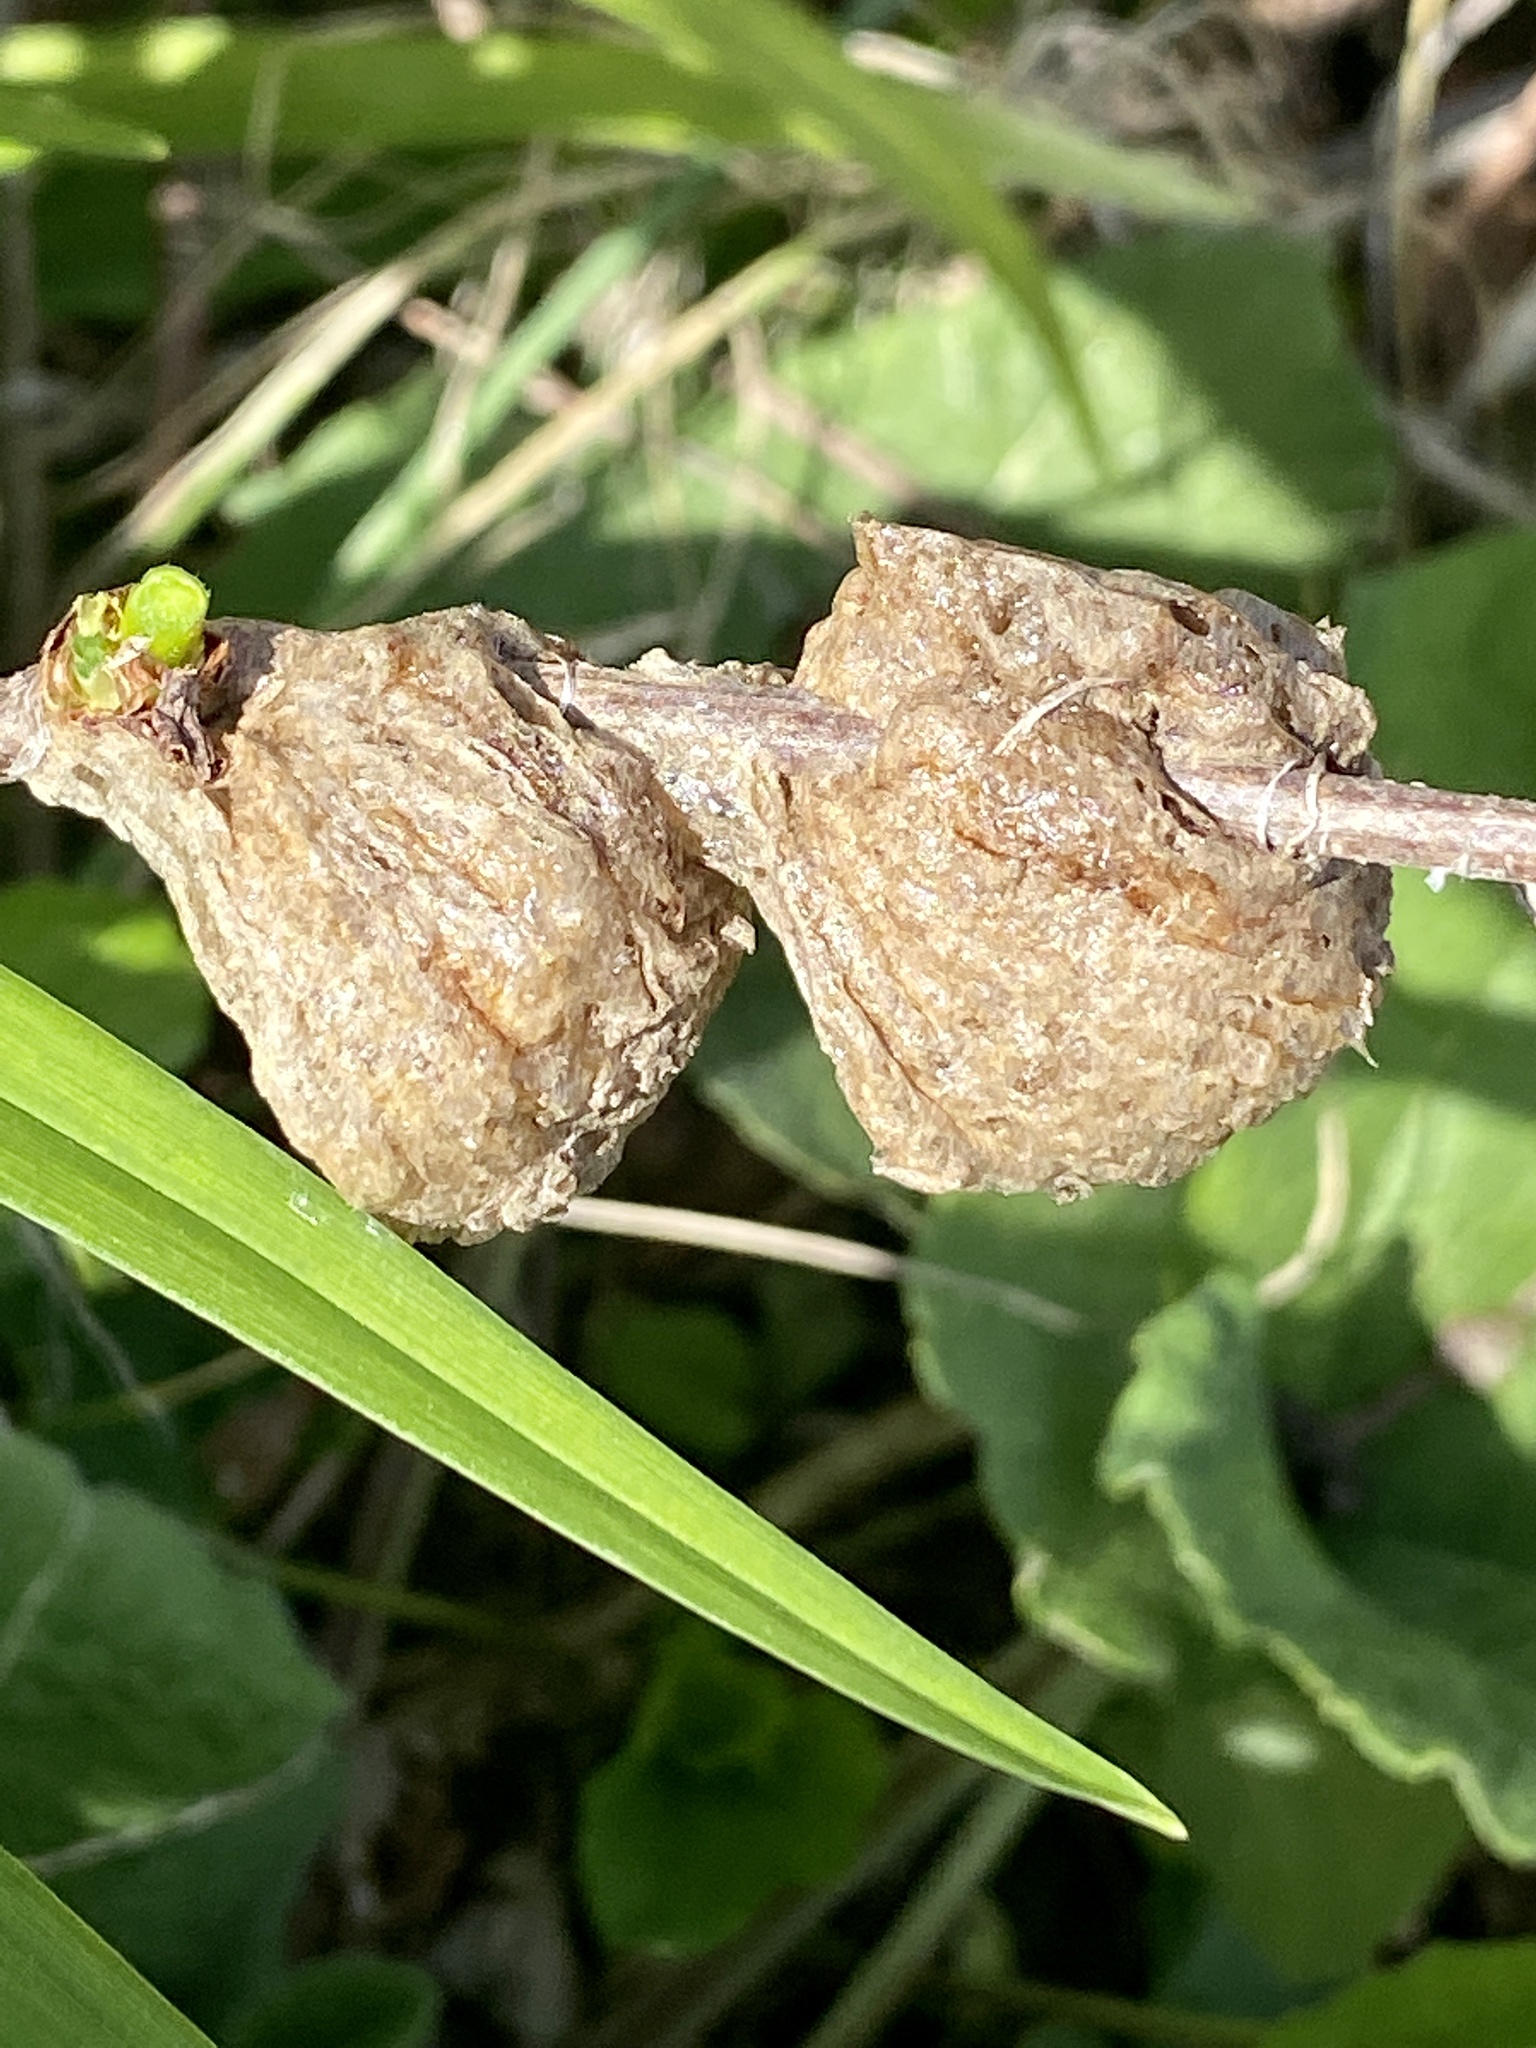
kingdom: Animalia
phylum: Arthropoda
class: Insecta
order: Mantodea
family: Mantidae
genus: Tenodera
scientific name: Tenodera sinensis
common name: Chinese mantis
